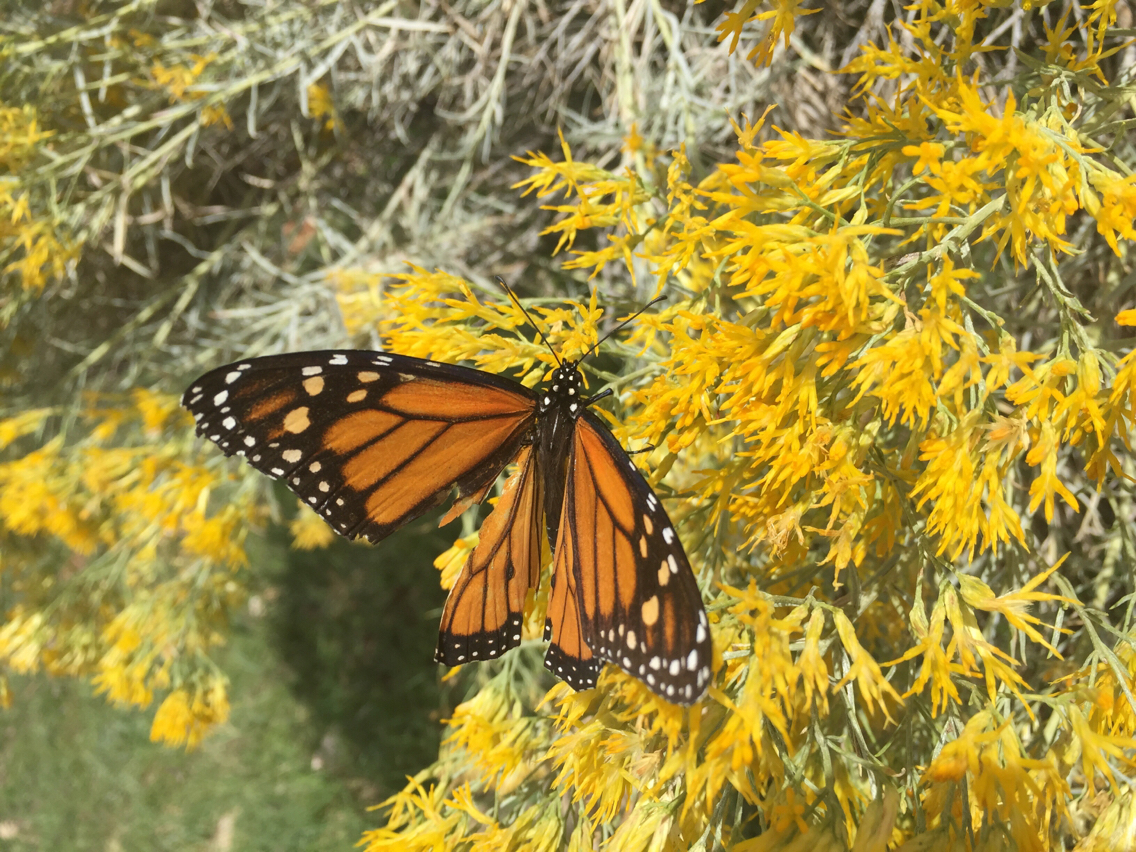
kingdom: Animalia
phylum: Arthropoda
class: Insecta
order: Lepidoptera
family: Nymphalidae
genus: Danaus
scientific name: Danaus plexippus
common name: Monarch
